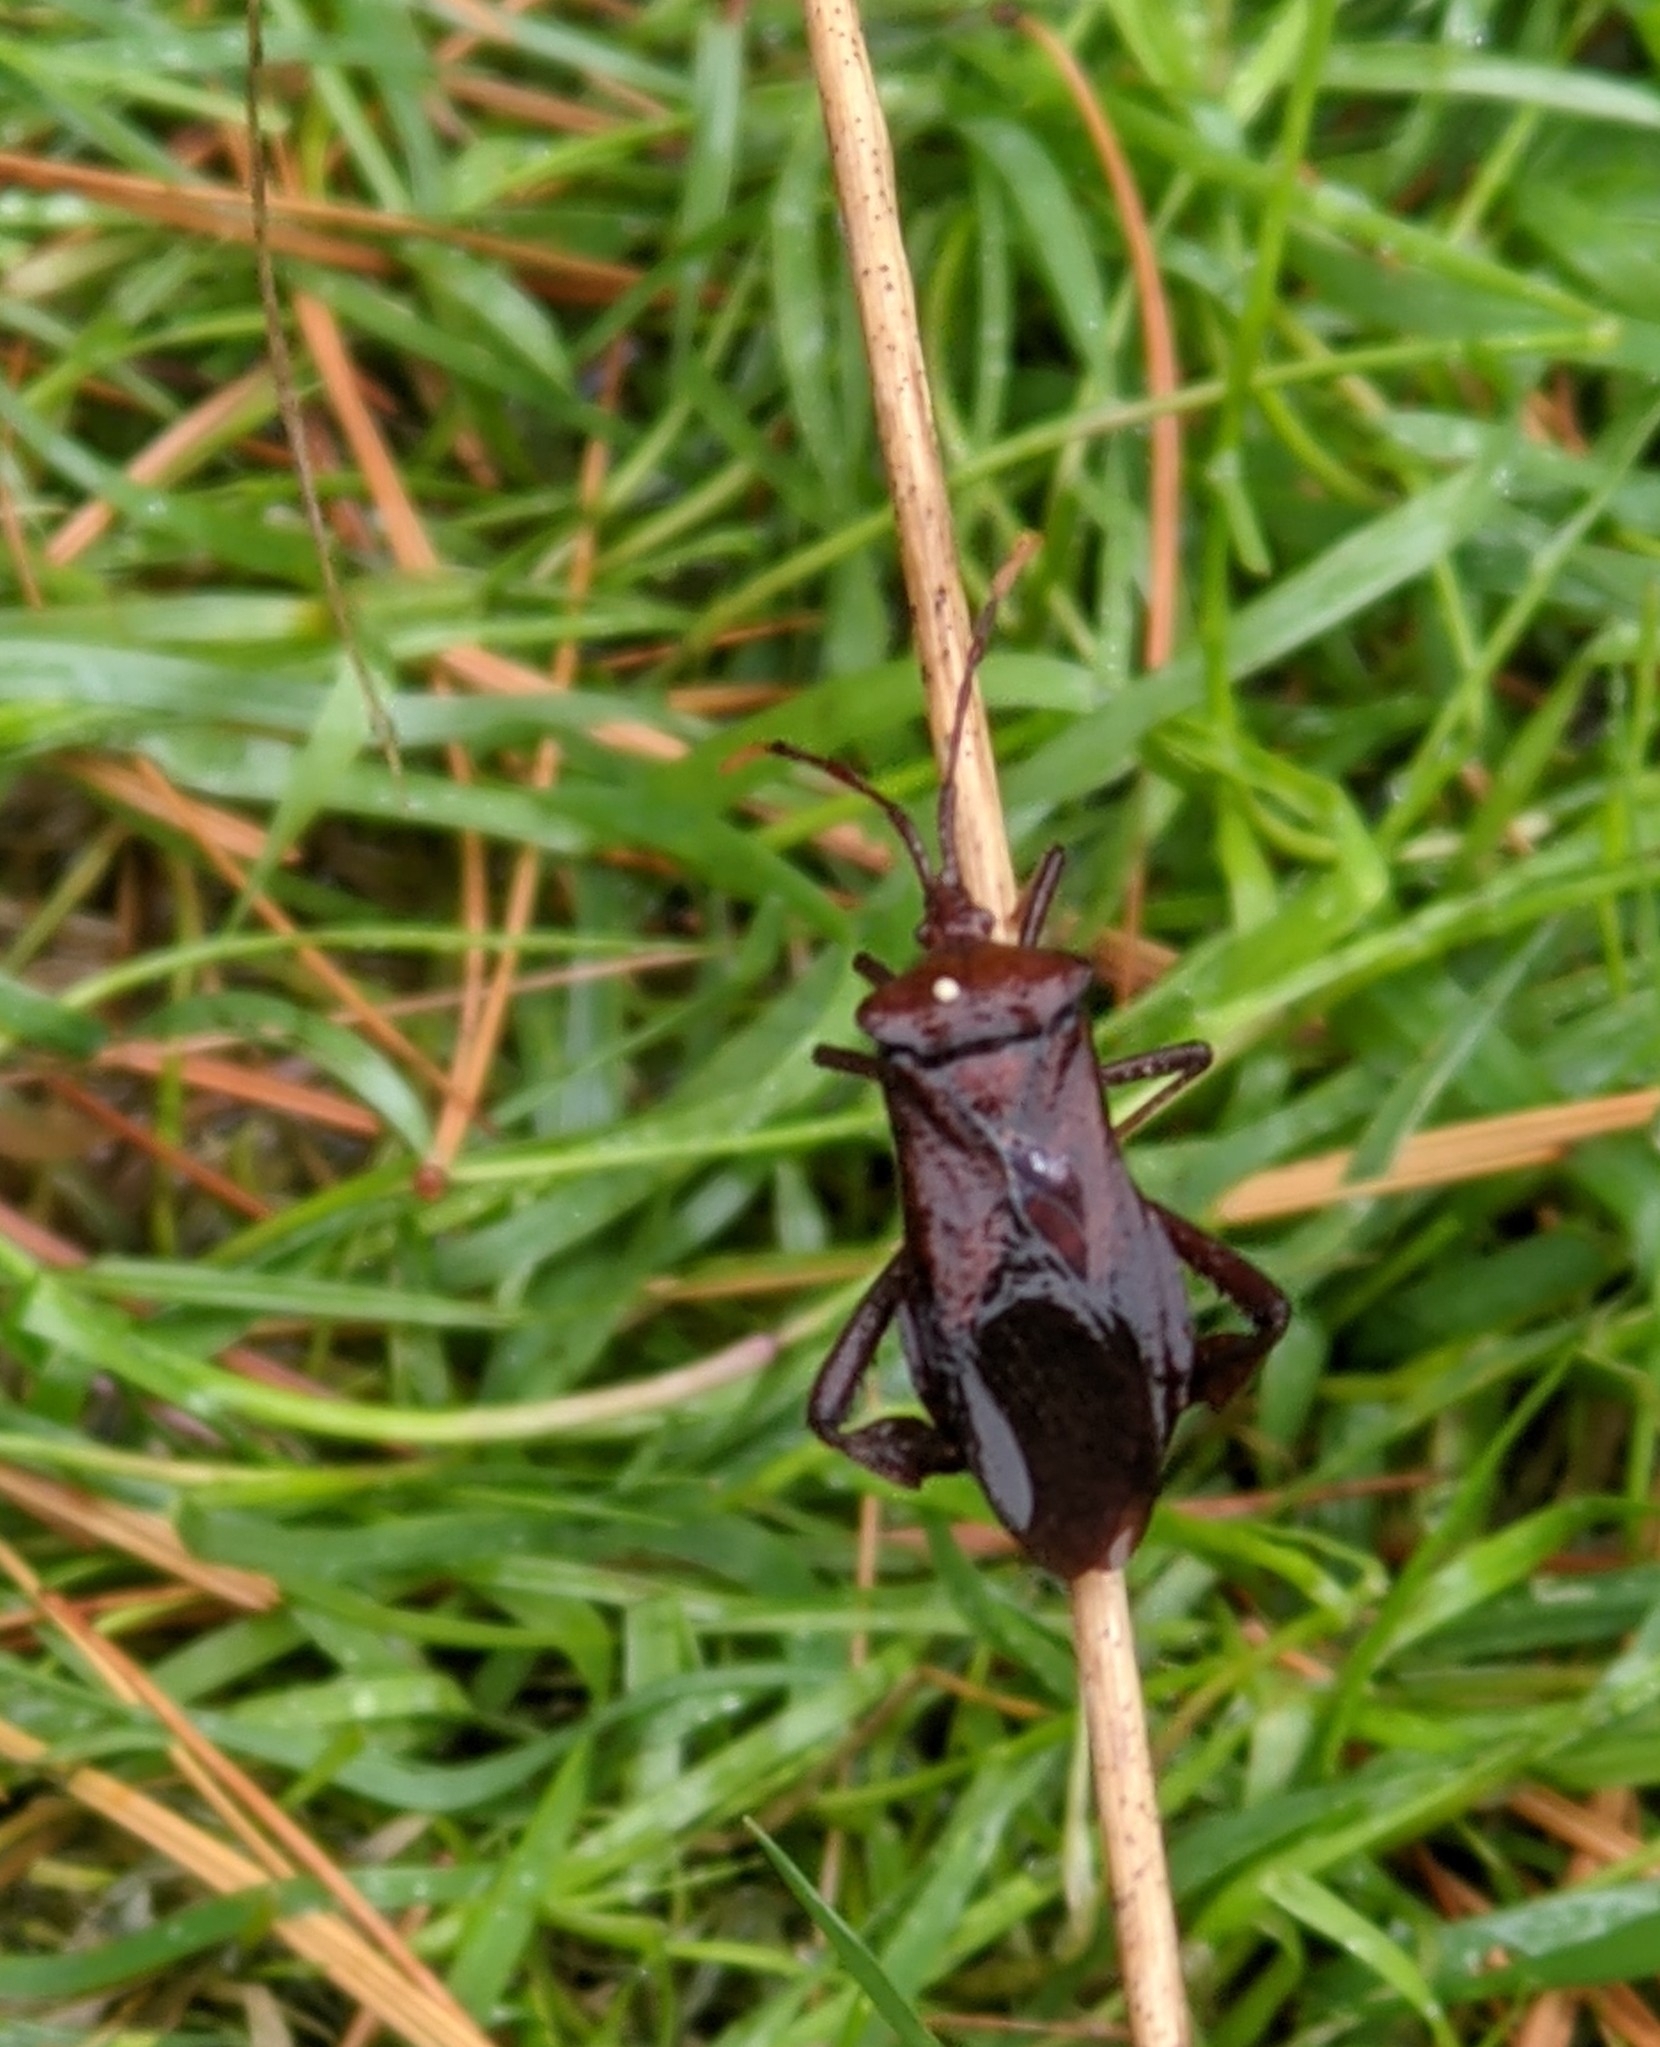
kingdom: Animalia
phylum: Arthropoda
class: Insecta
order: Hemiptera
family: Coreidae
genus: Acanthocephala
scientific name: Acanthocephala terminalis
